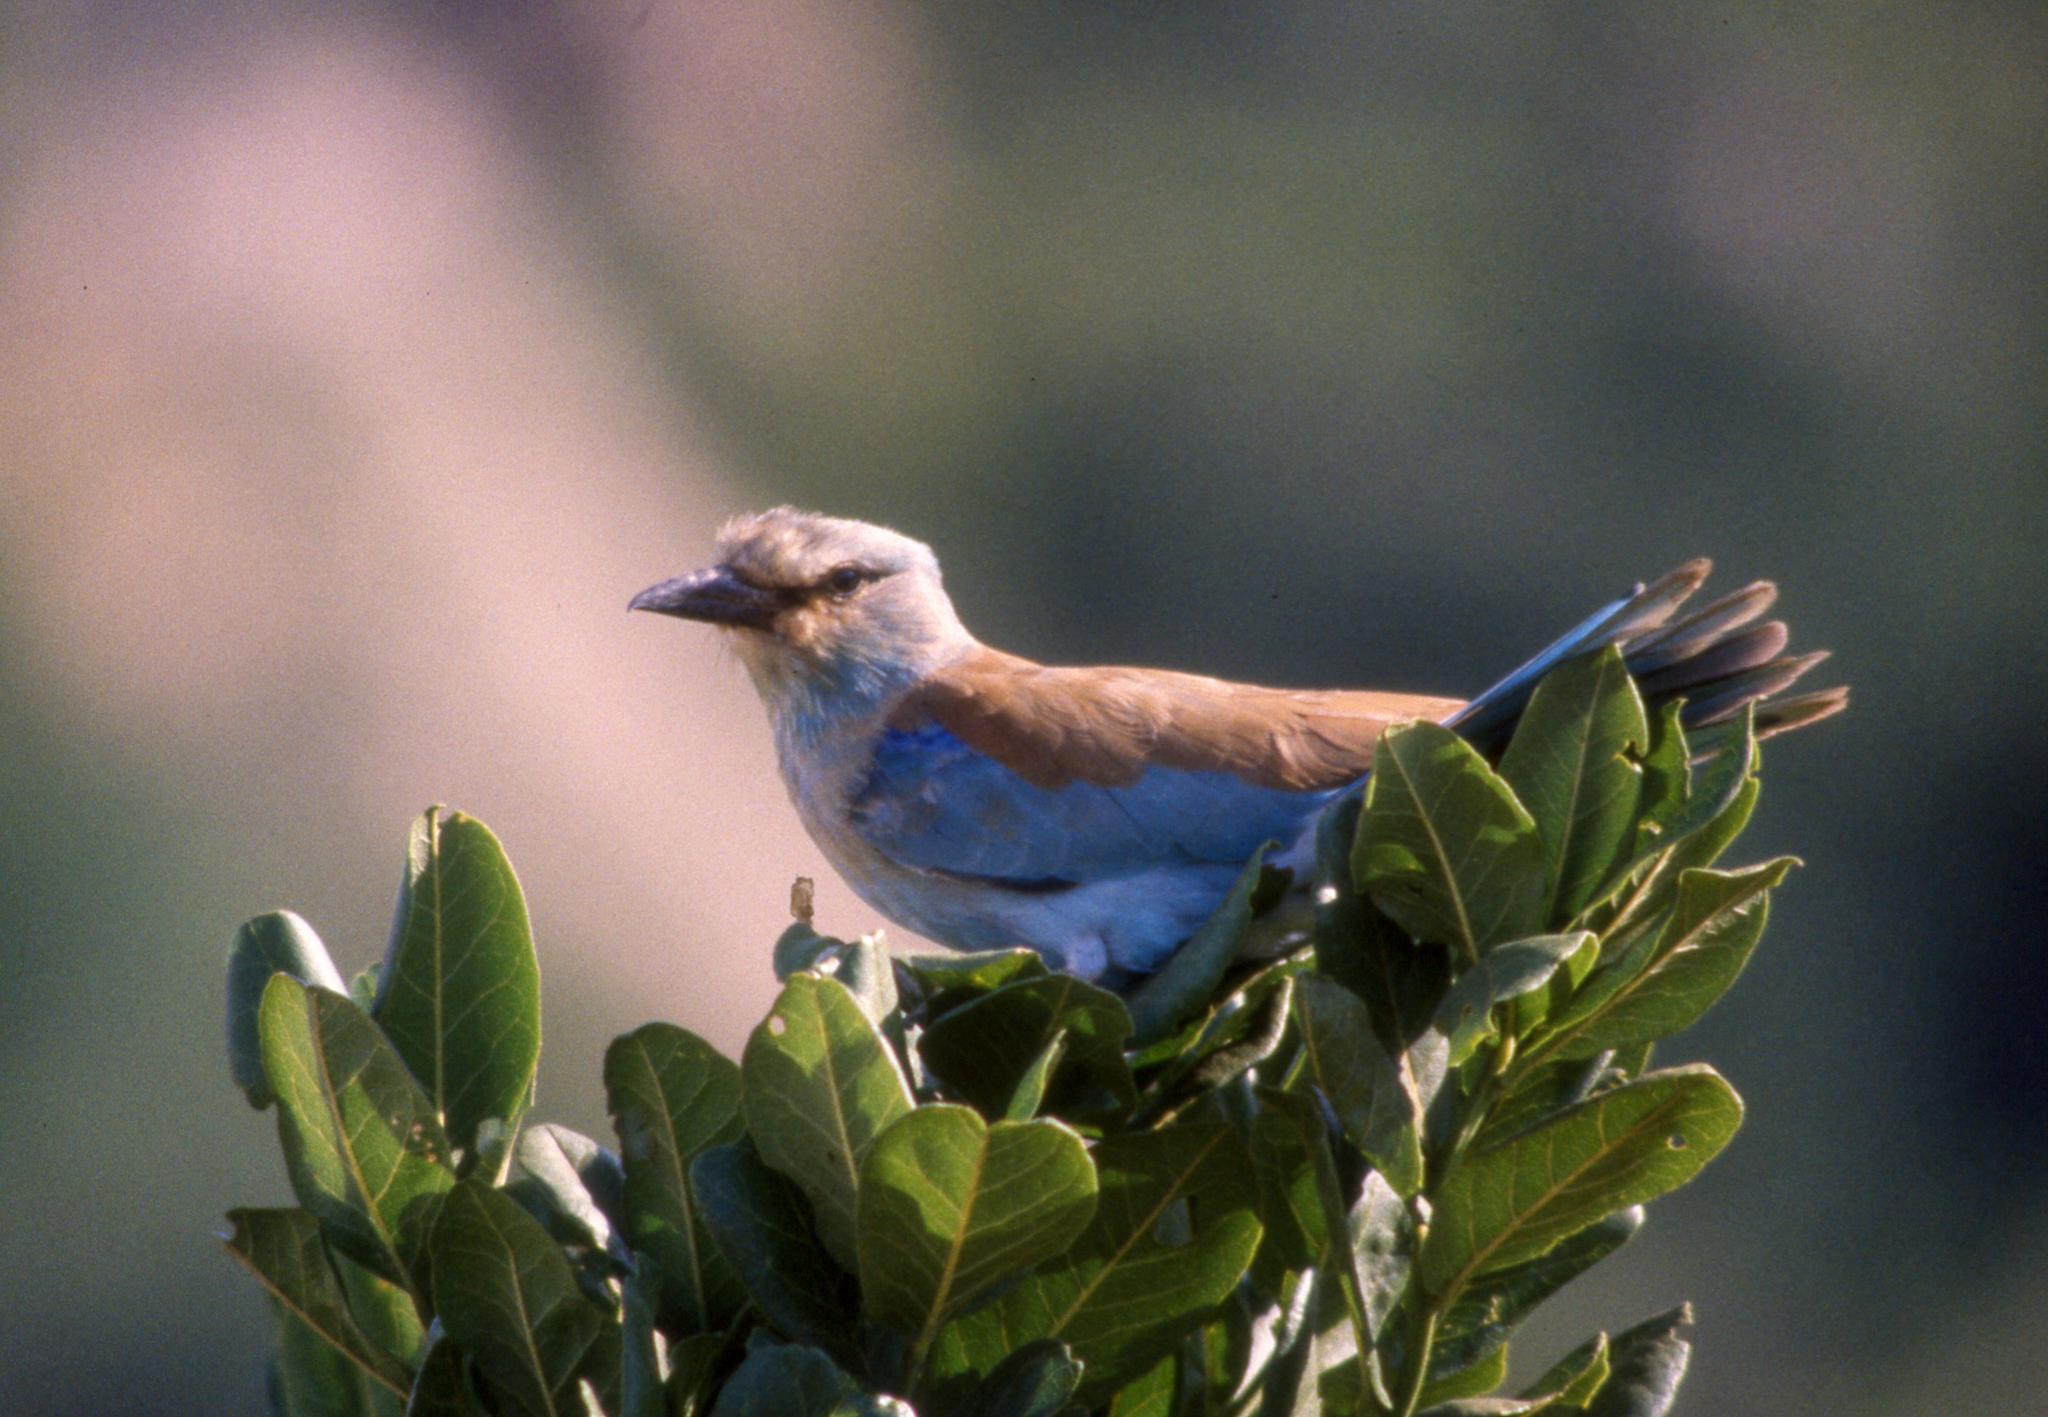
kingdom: Animalia
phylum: Chordata
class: Aves
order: Coraciiformes
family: Coraciidae
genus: Coracias
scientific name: Coracias garrulus
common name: European roller
